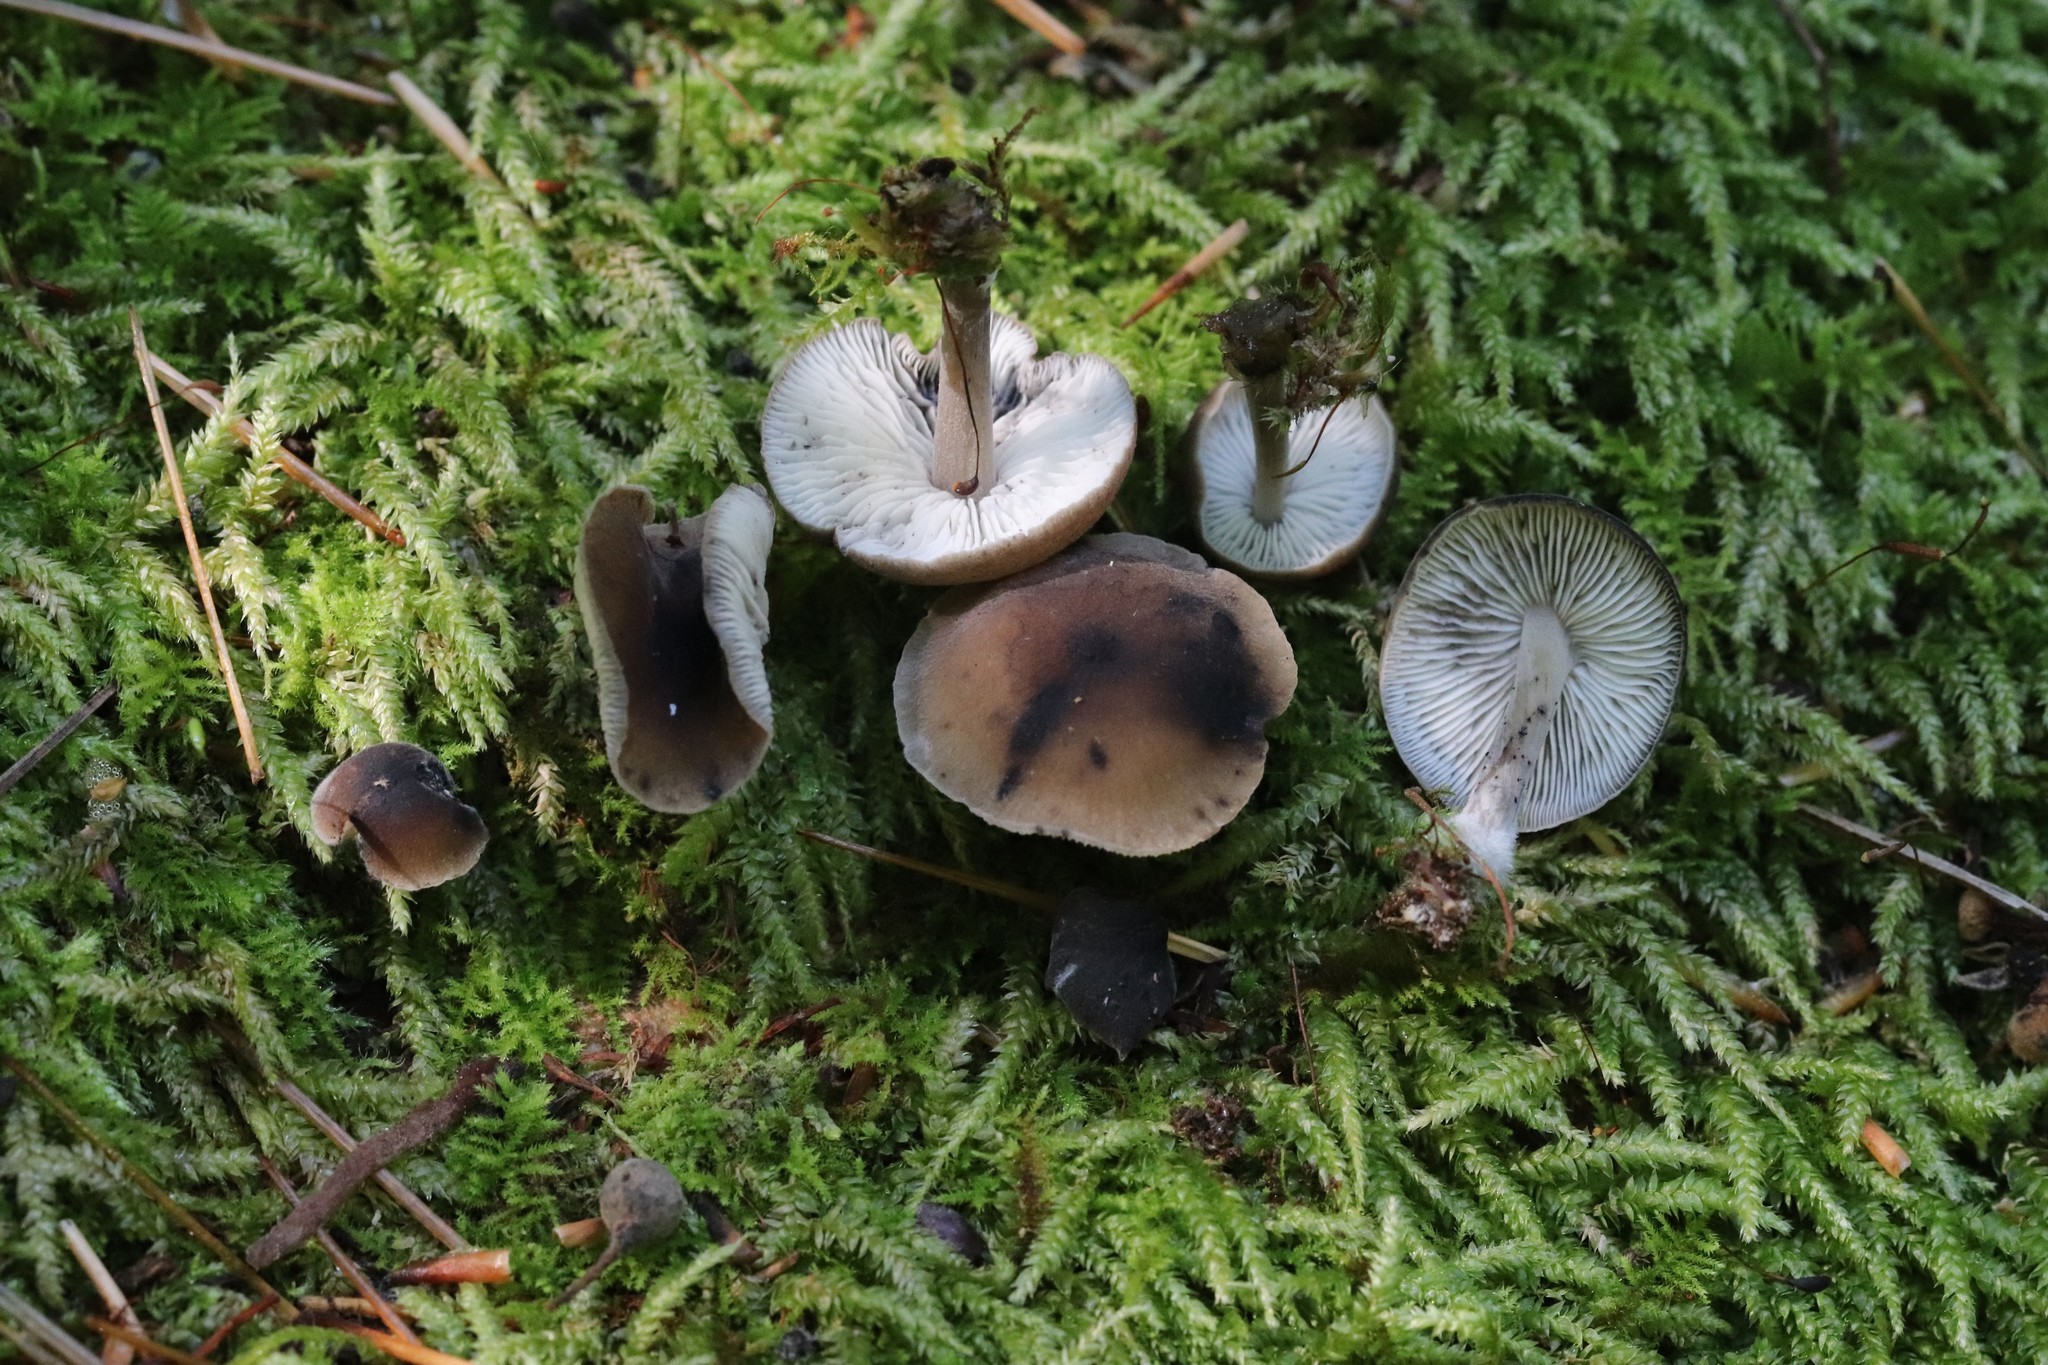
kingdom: Fungi
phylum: Basidiomycota
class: Agaricomycetes
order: Agaricales
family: Mycenaceae
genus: Hydropus
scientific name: Hydropus atramentosus
